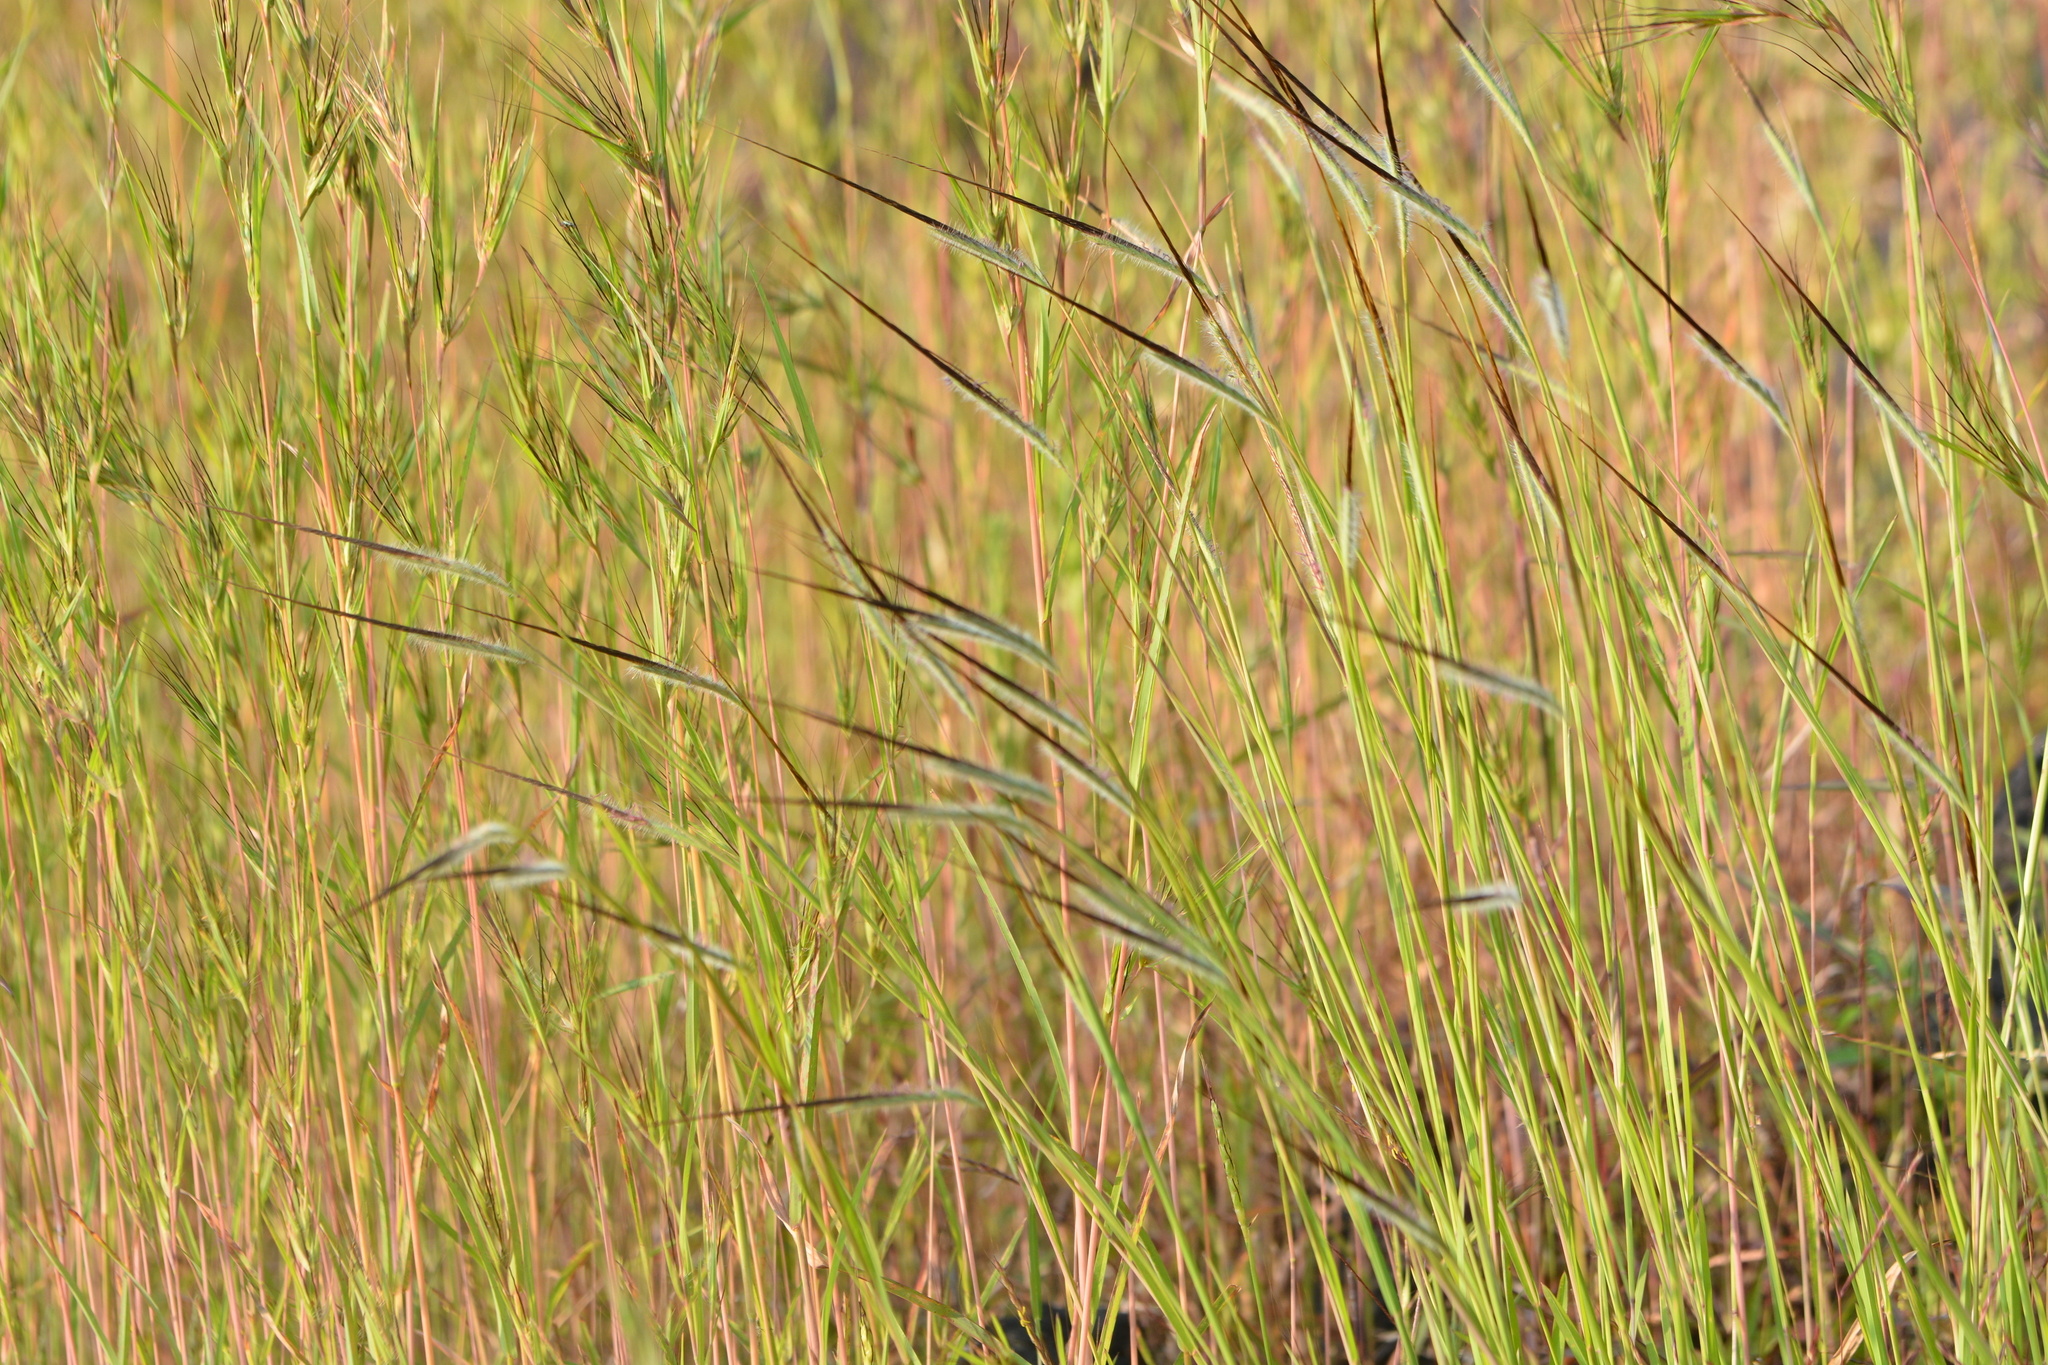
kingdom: Plantae
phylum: Tracheophyta
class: Liliopsida
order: Poales
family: Poaceae
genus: Heteropogon
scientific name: Heteropogon contortus
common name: Tanglehead
